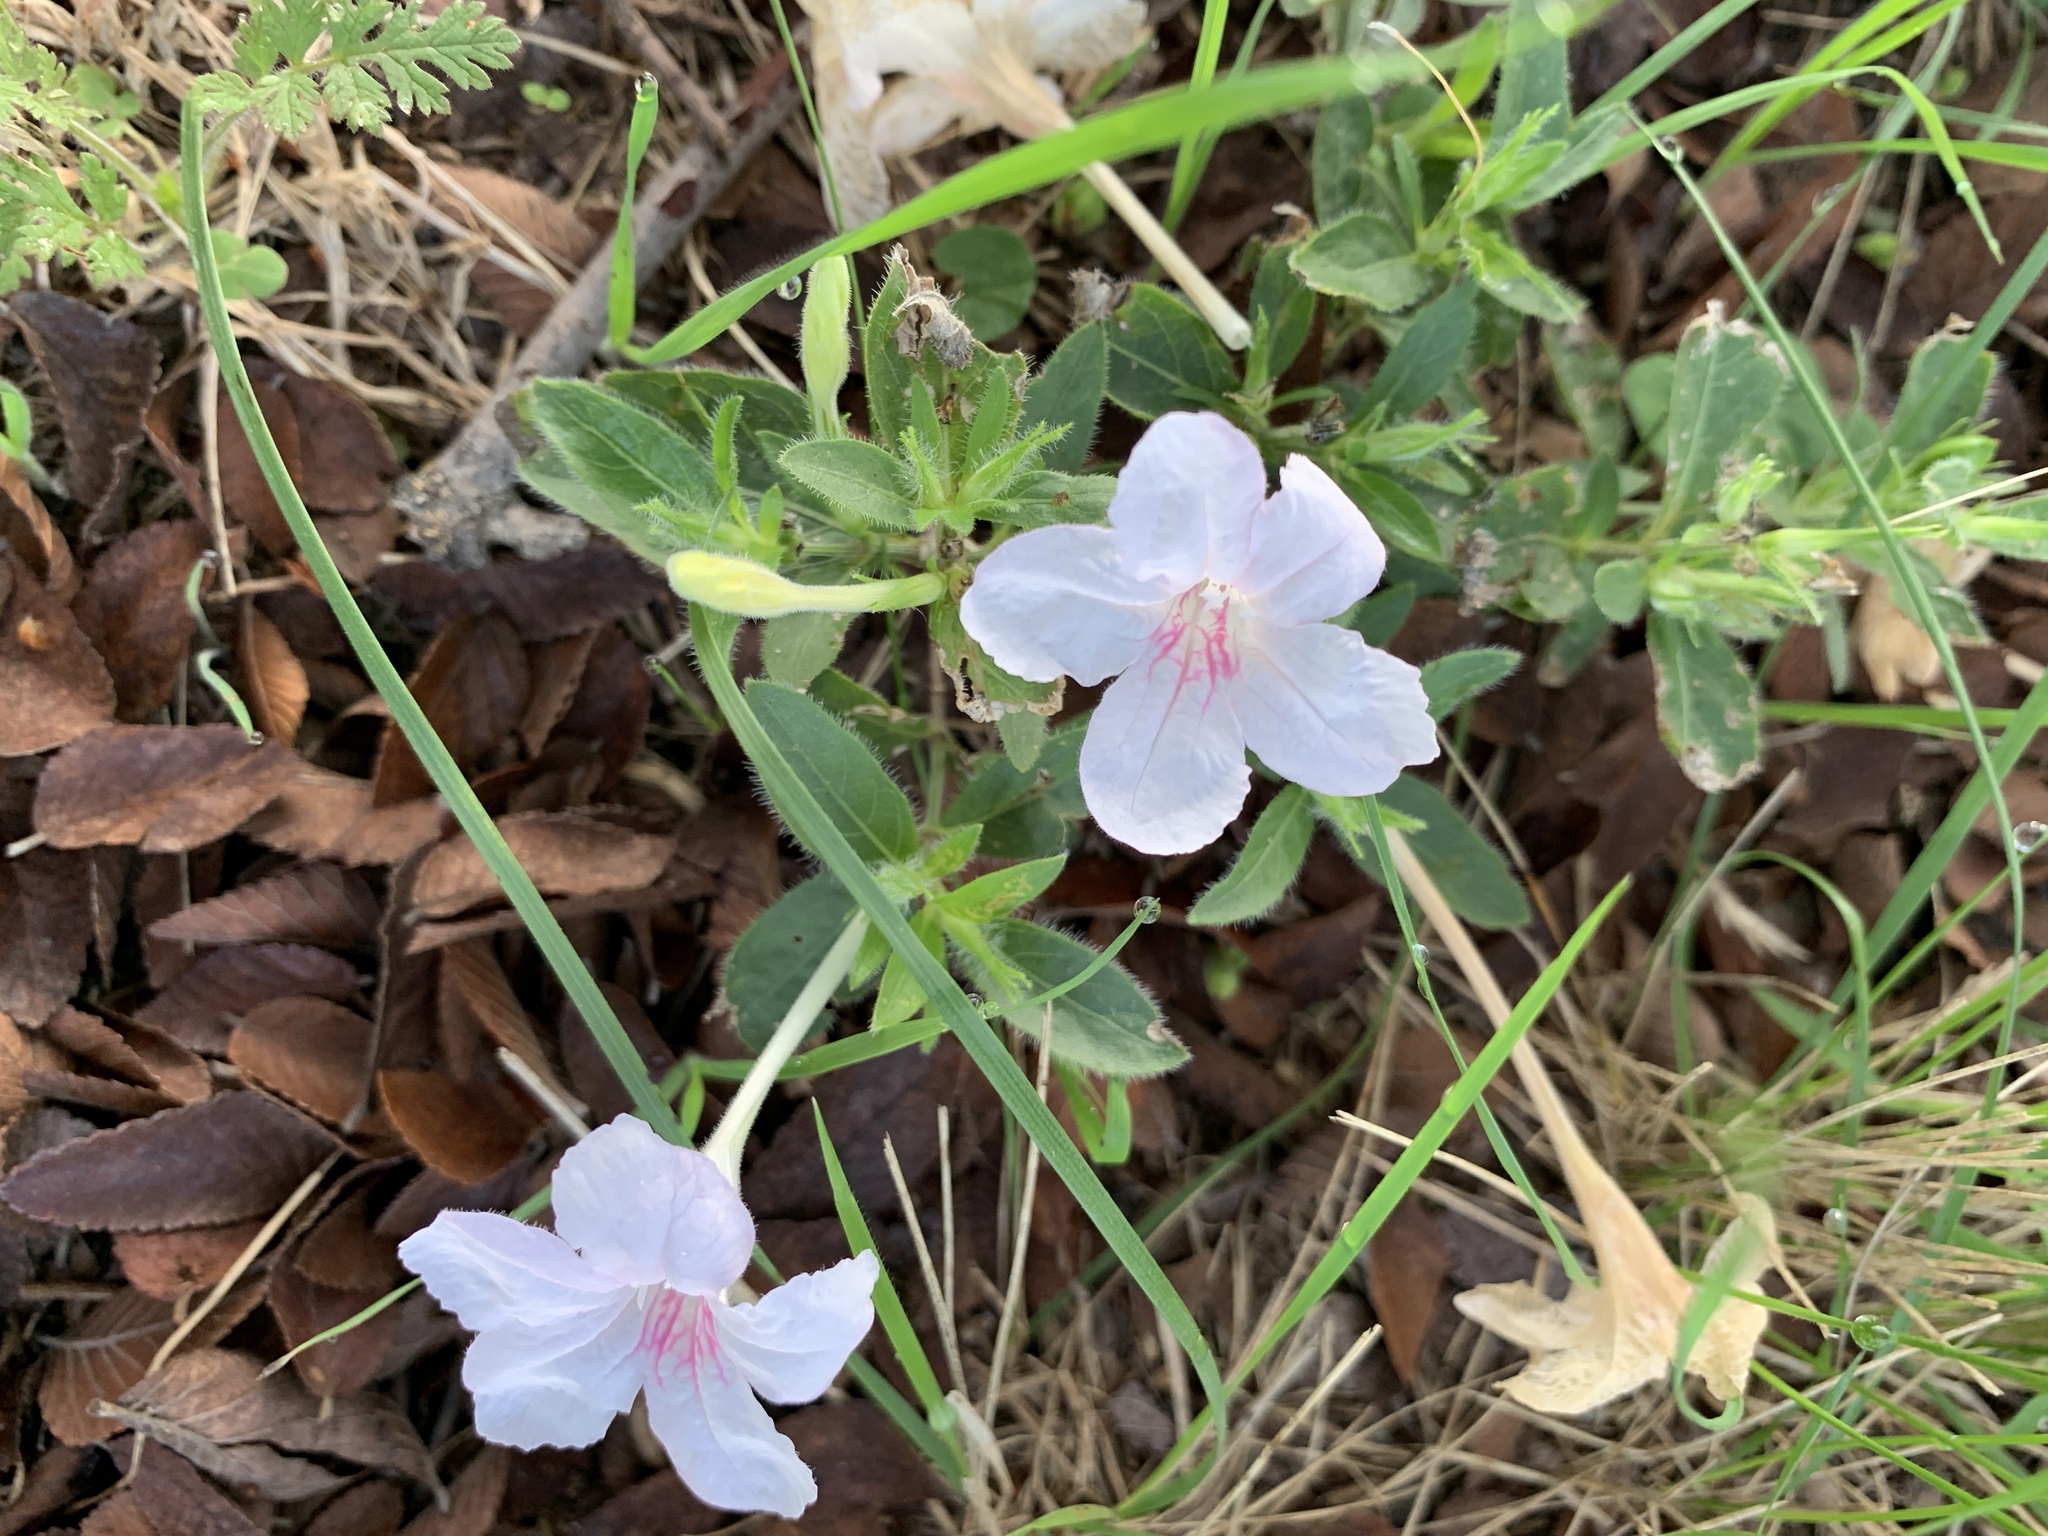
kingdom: Plantae
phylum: Tracheophyta
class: Magnoliopsida
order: Lamiales
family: Acanthaceae
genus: Ruellia
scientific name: Ruellia humilis
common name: Fringe-leaf ruellia
